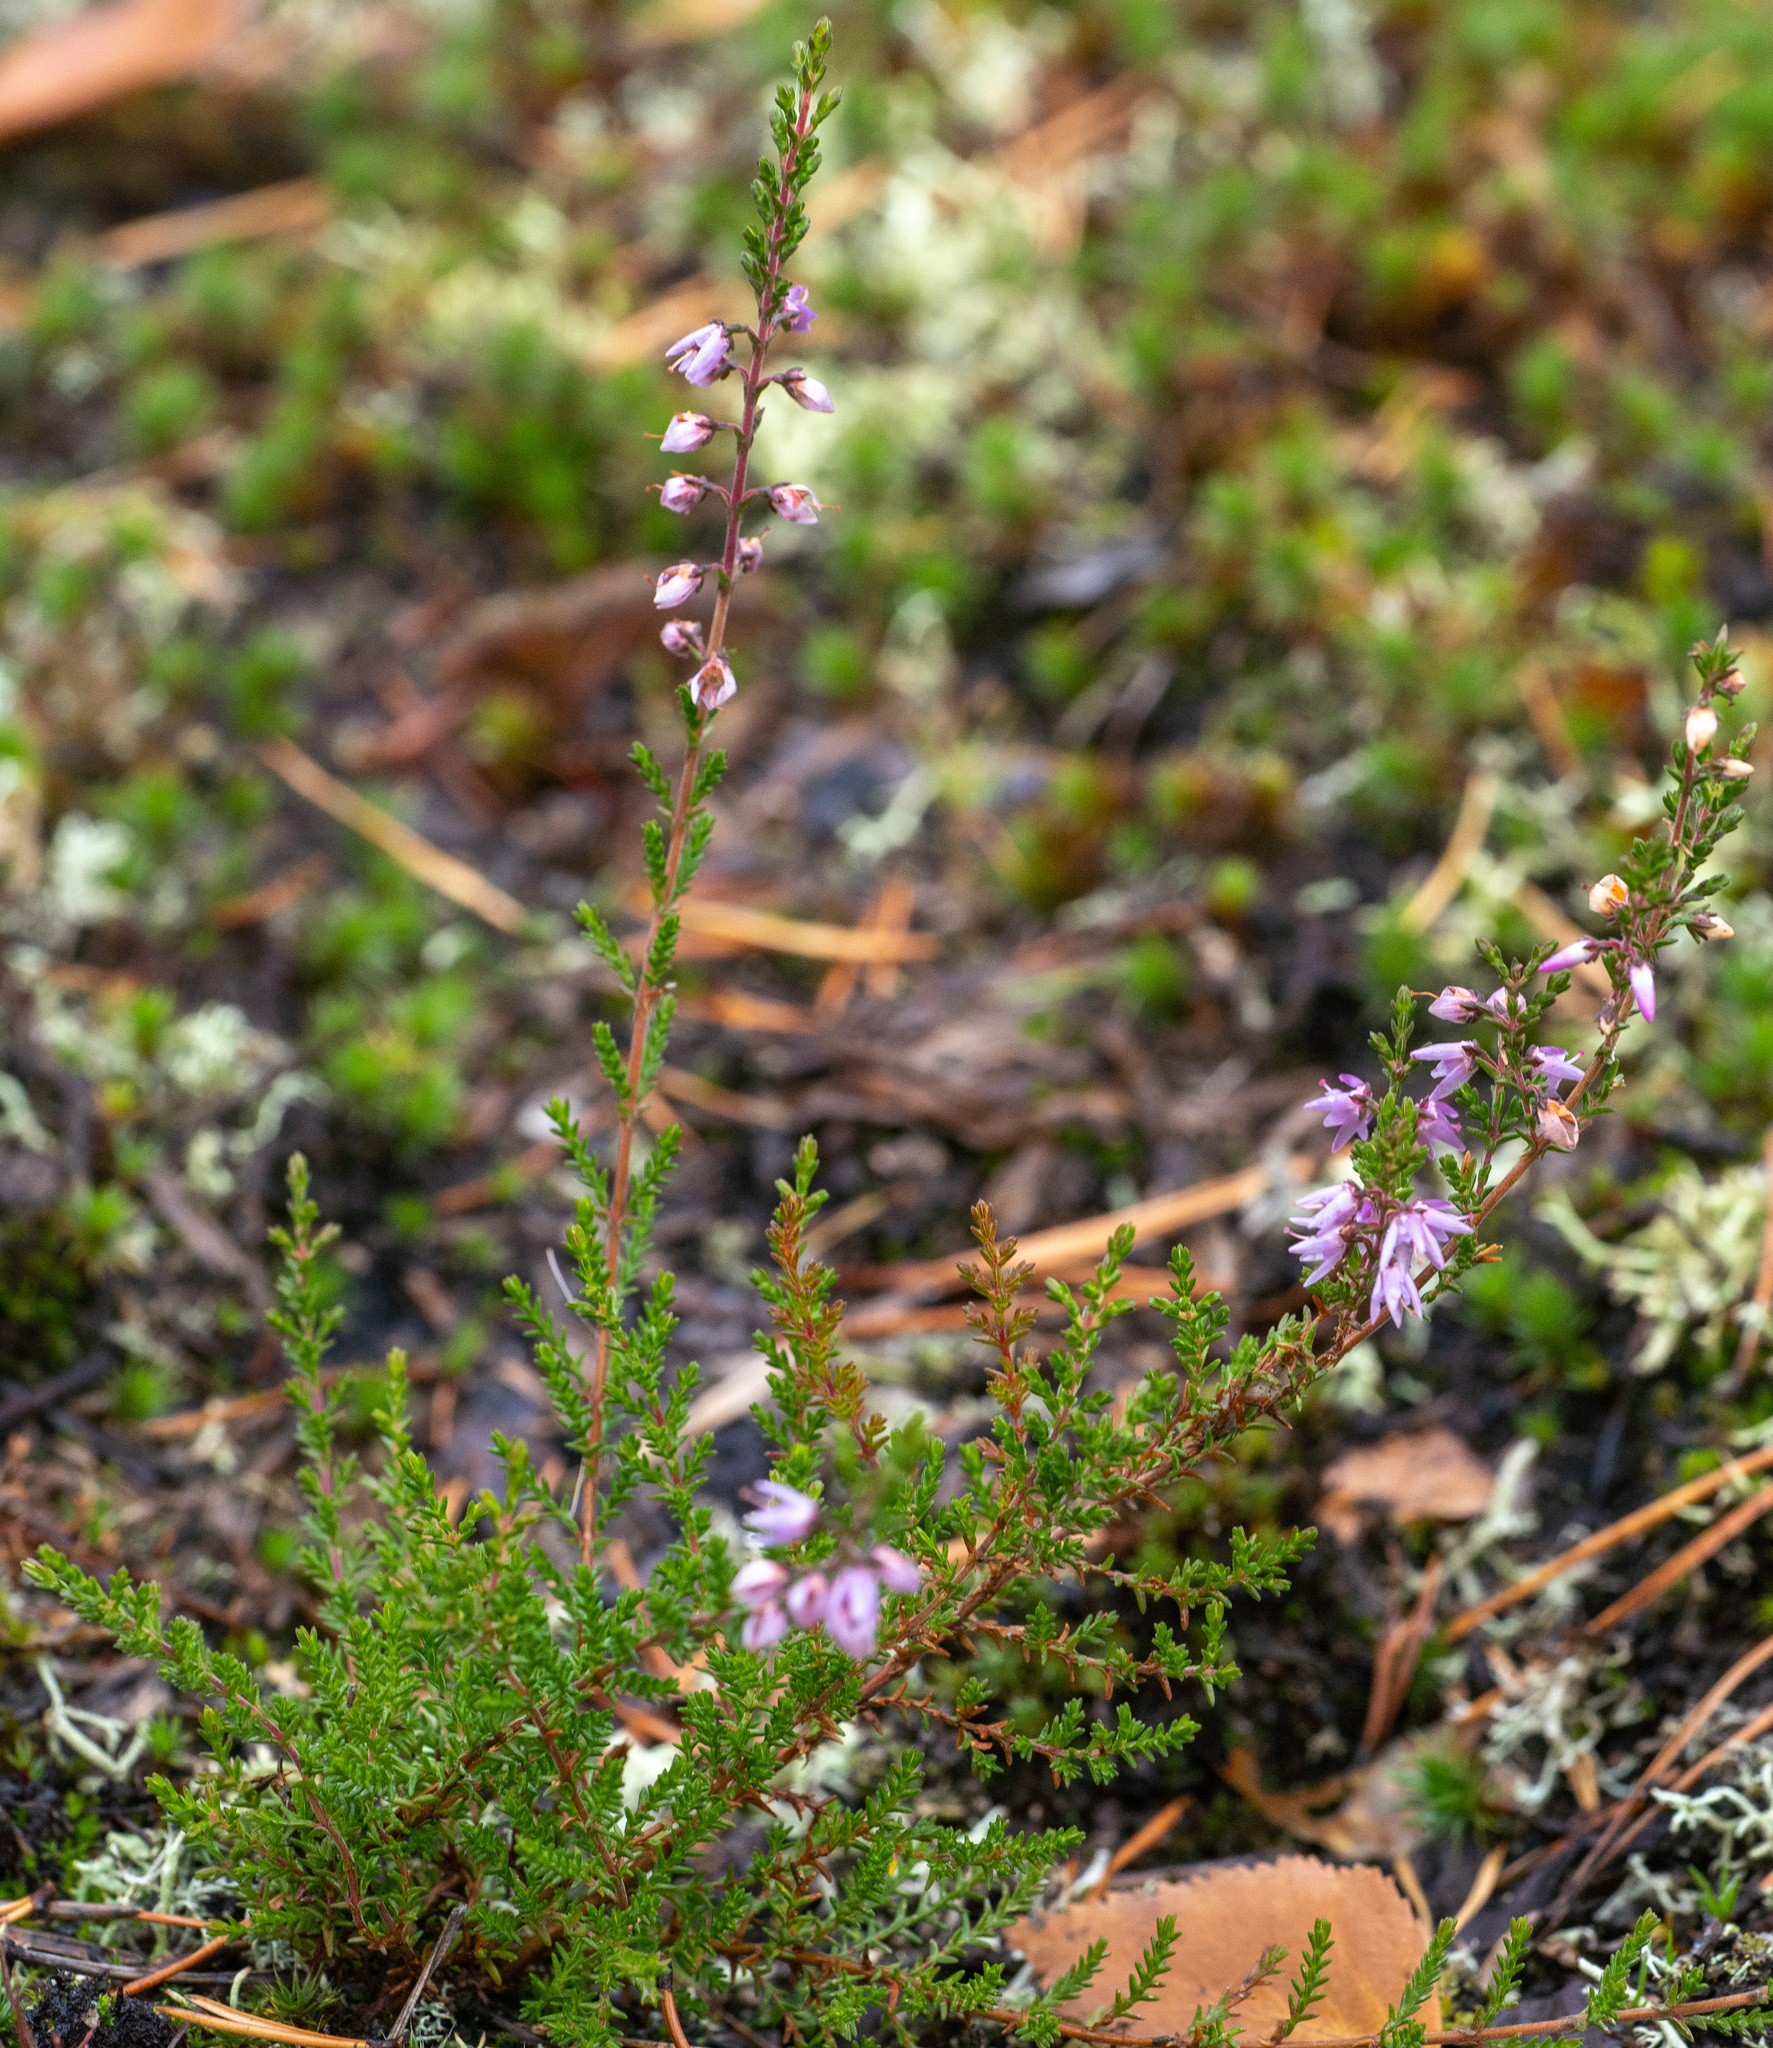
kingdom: Plantae
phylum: Tracheophyta
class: Magnoliopsida
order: Ericales
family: Ericaceae
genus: Calluna
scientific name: Calluna vulgaris
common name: Heather
